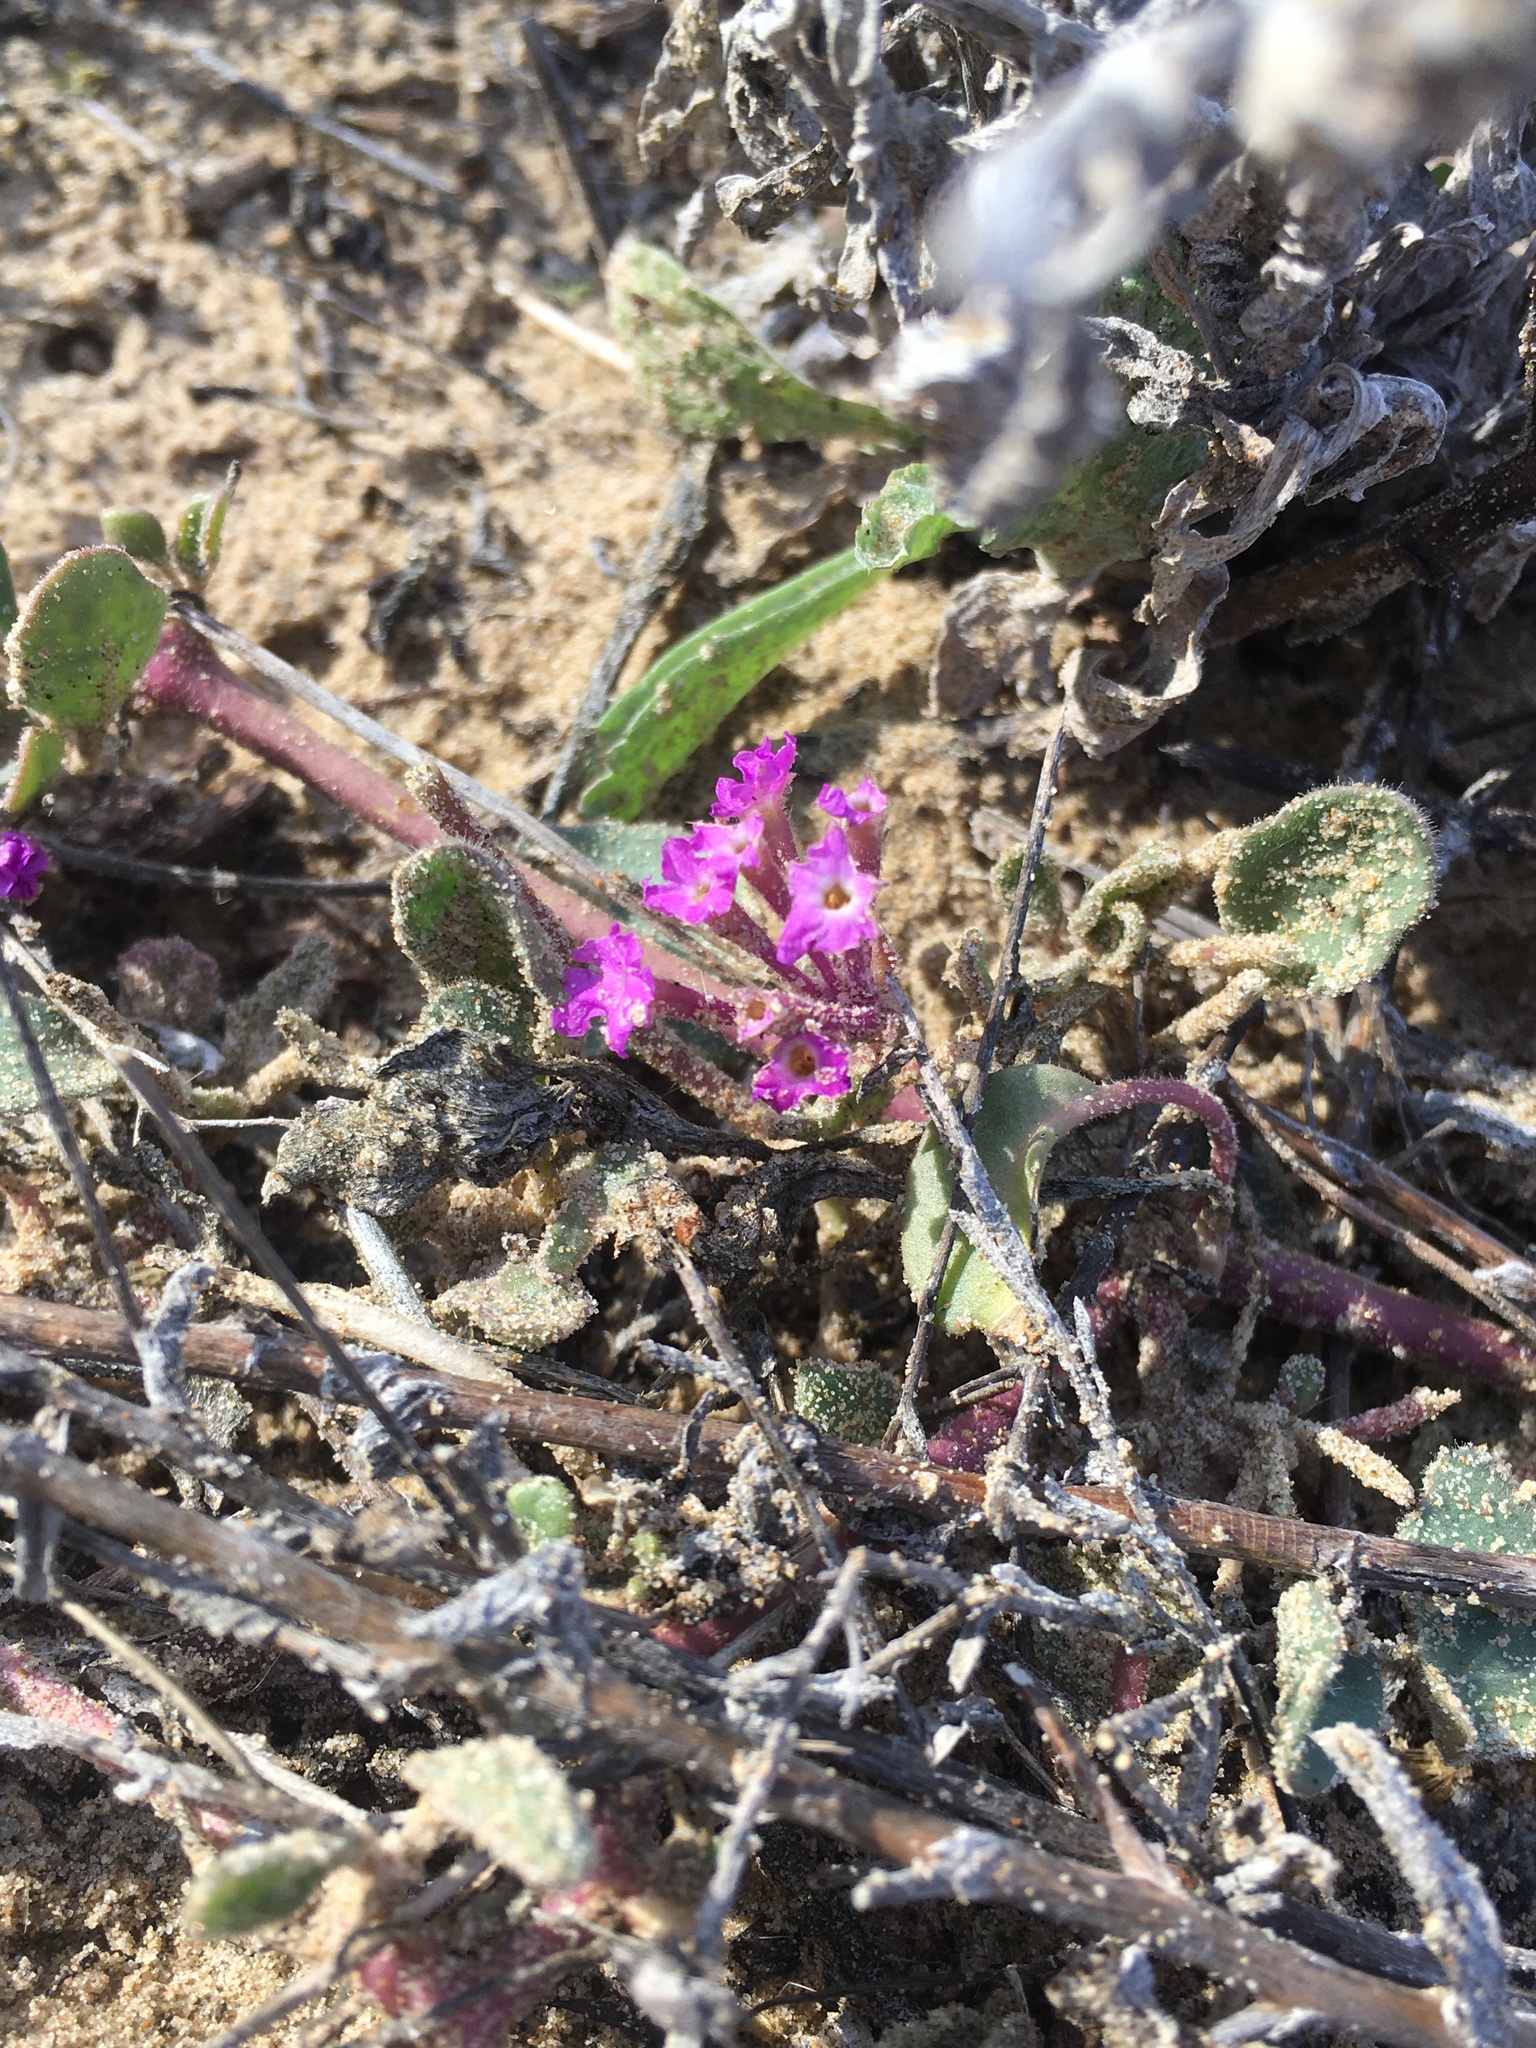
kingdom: Plantae
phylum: Tracheophyta
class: Magnoliopsida
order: Caryophyllales
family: Nyctaginaceae
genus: Abronia
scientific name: Abronia umbellata
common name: Sand-verbena
